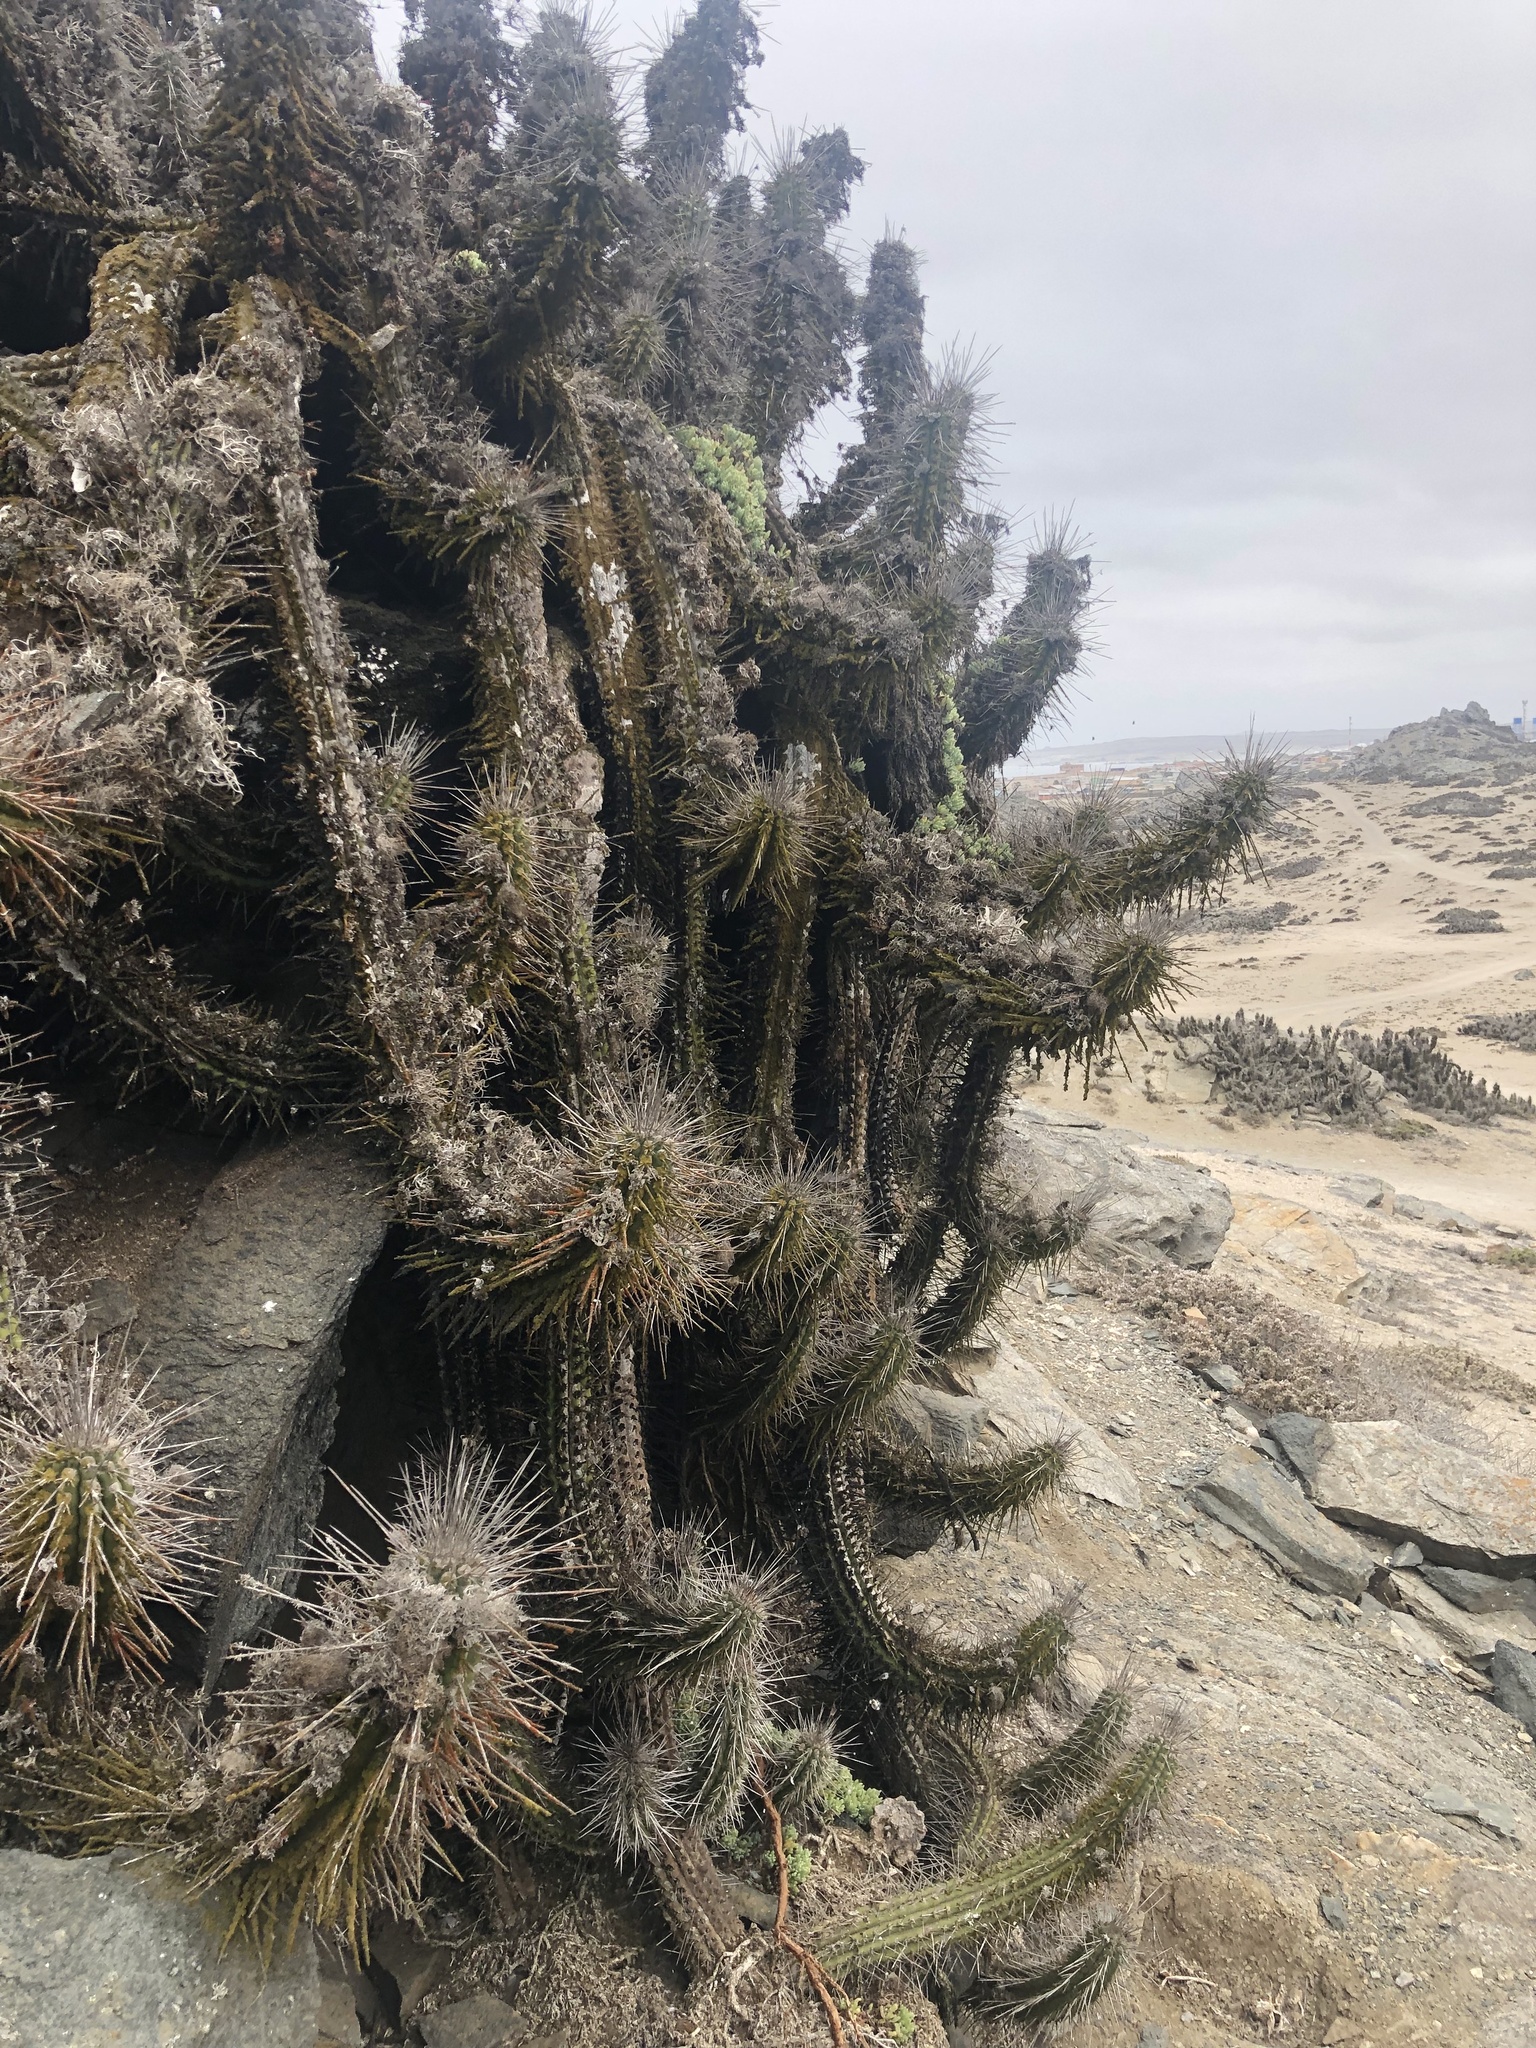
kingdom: Plantae
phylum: Tracheophyta
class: Magnoliopsida
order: Caryophyllales
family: Cactaceae
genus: Eulychnia
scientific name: Eulychnia chorosensis
